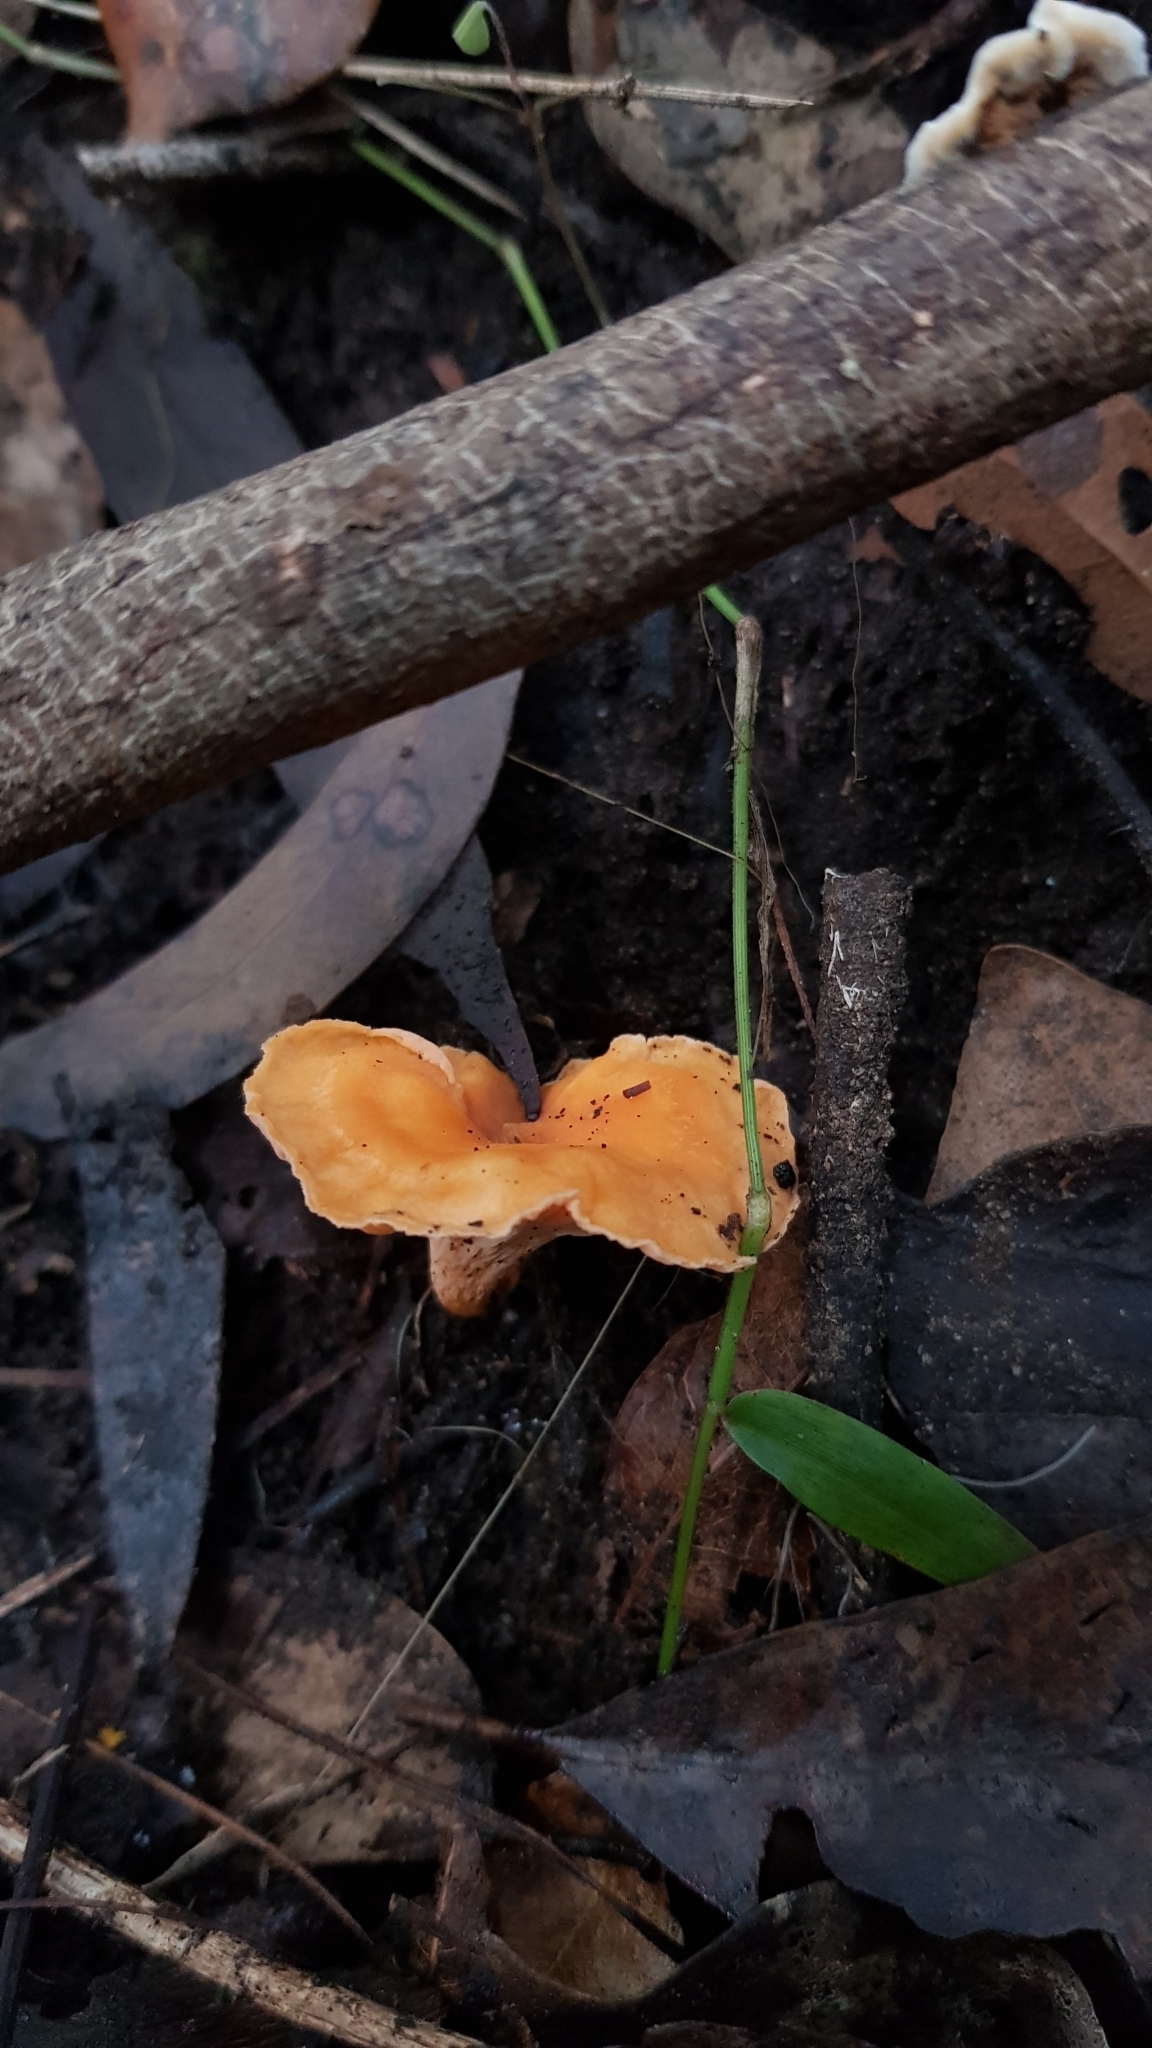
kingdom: Fungi
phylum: Basidiomycota
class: Agaricomycetes
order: Cantharellales
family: Hydnaceae
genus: Cantharellus
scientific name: Cantharellus
